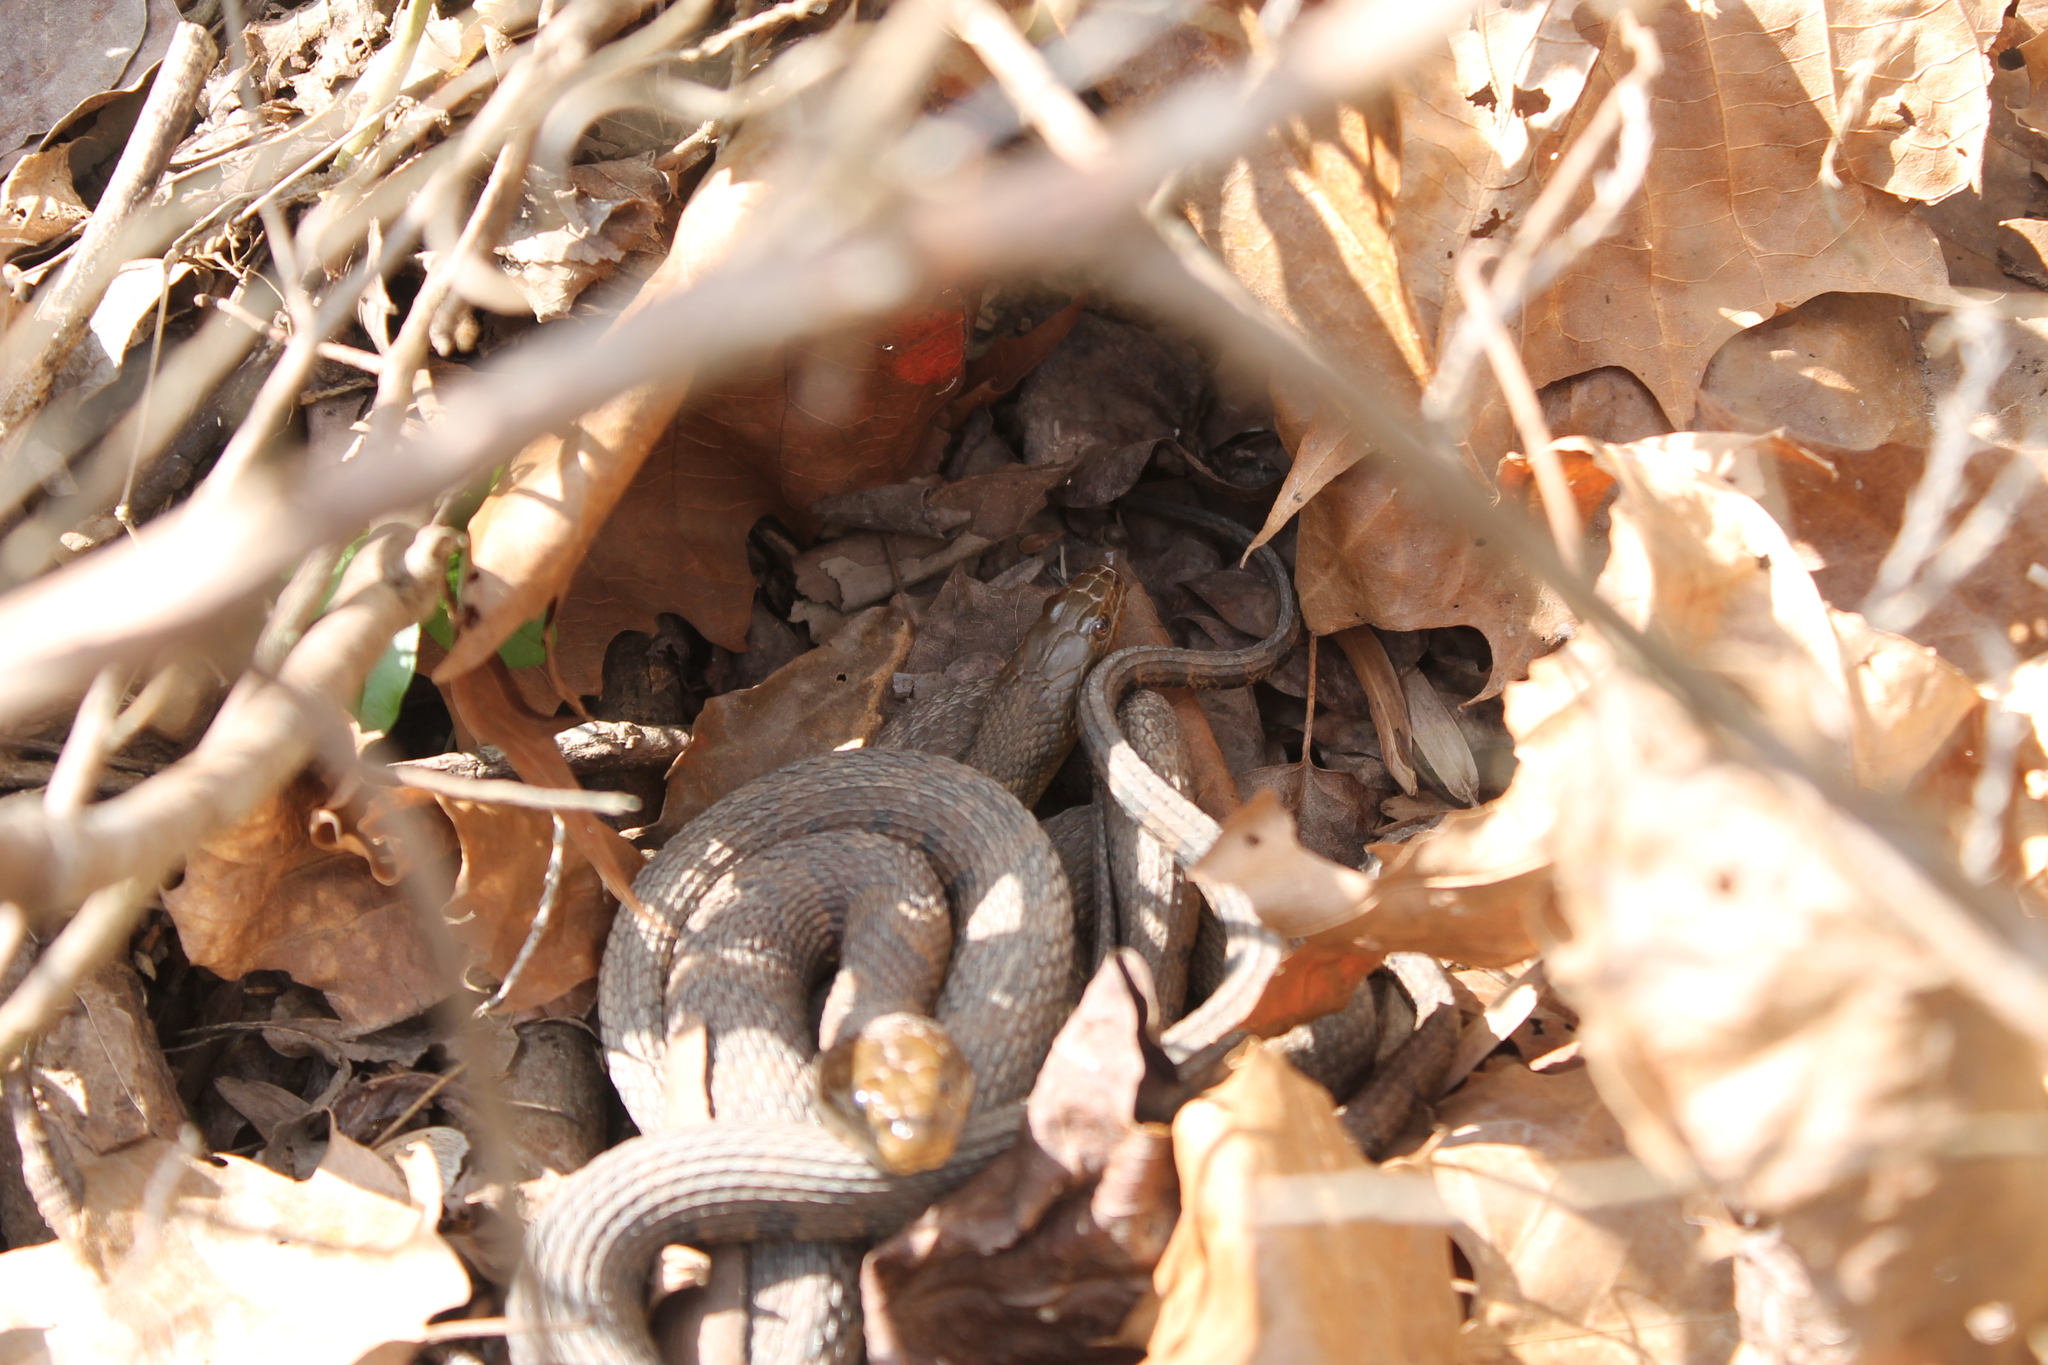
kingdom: Animalia
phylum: Chordata
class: Squamata
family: Colubridae
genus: Nerodia
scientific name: Nerodia sipedon
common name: Northern water snake
